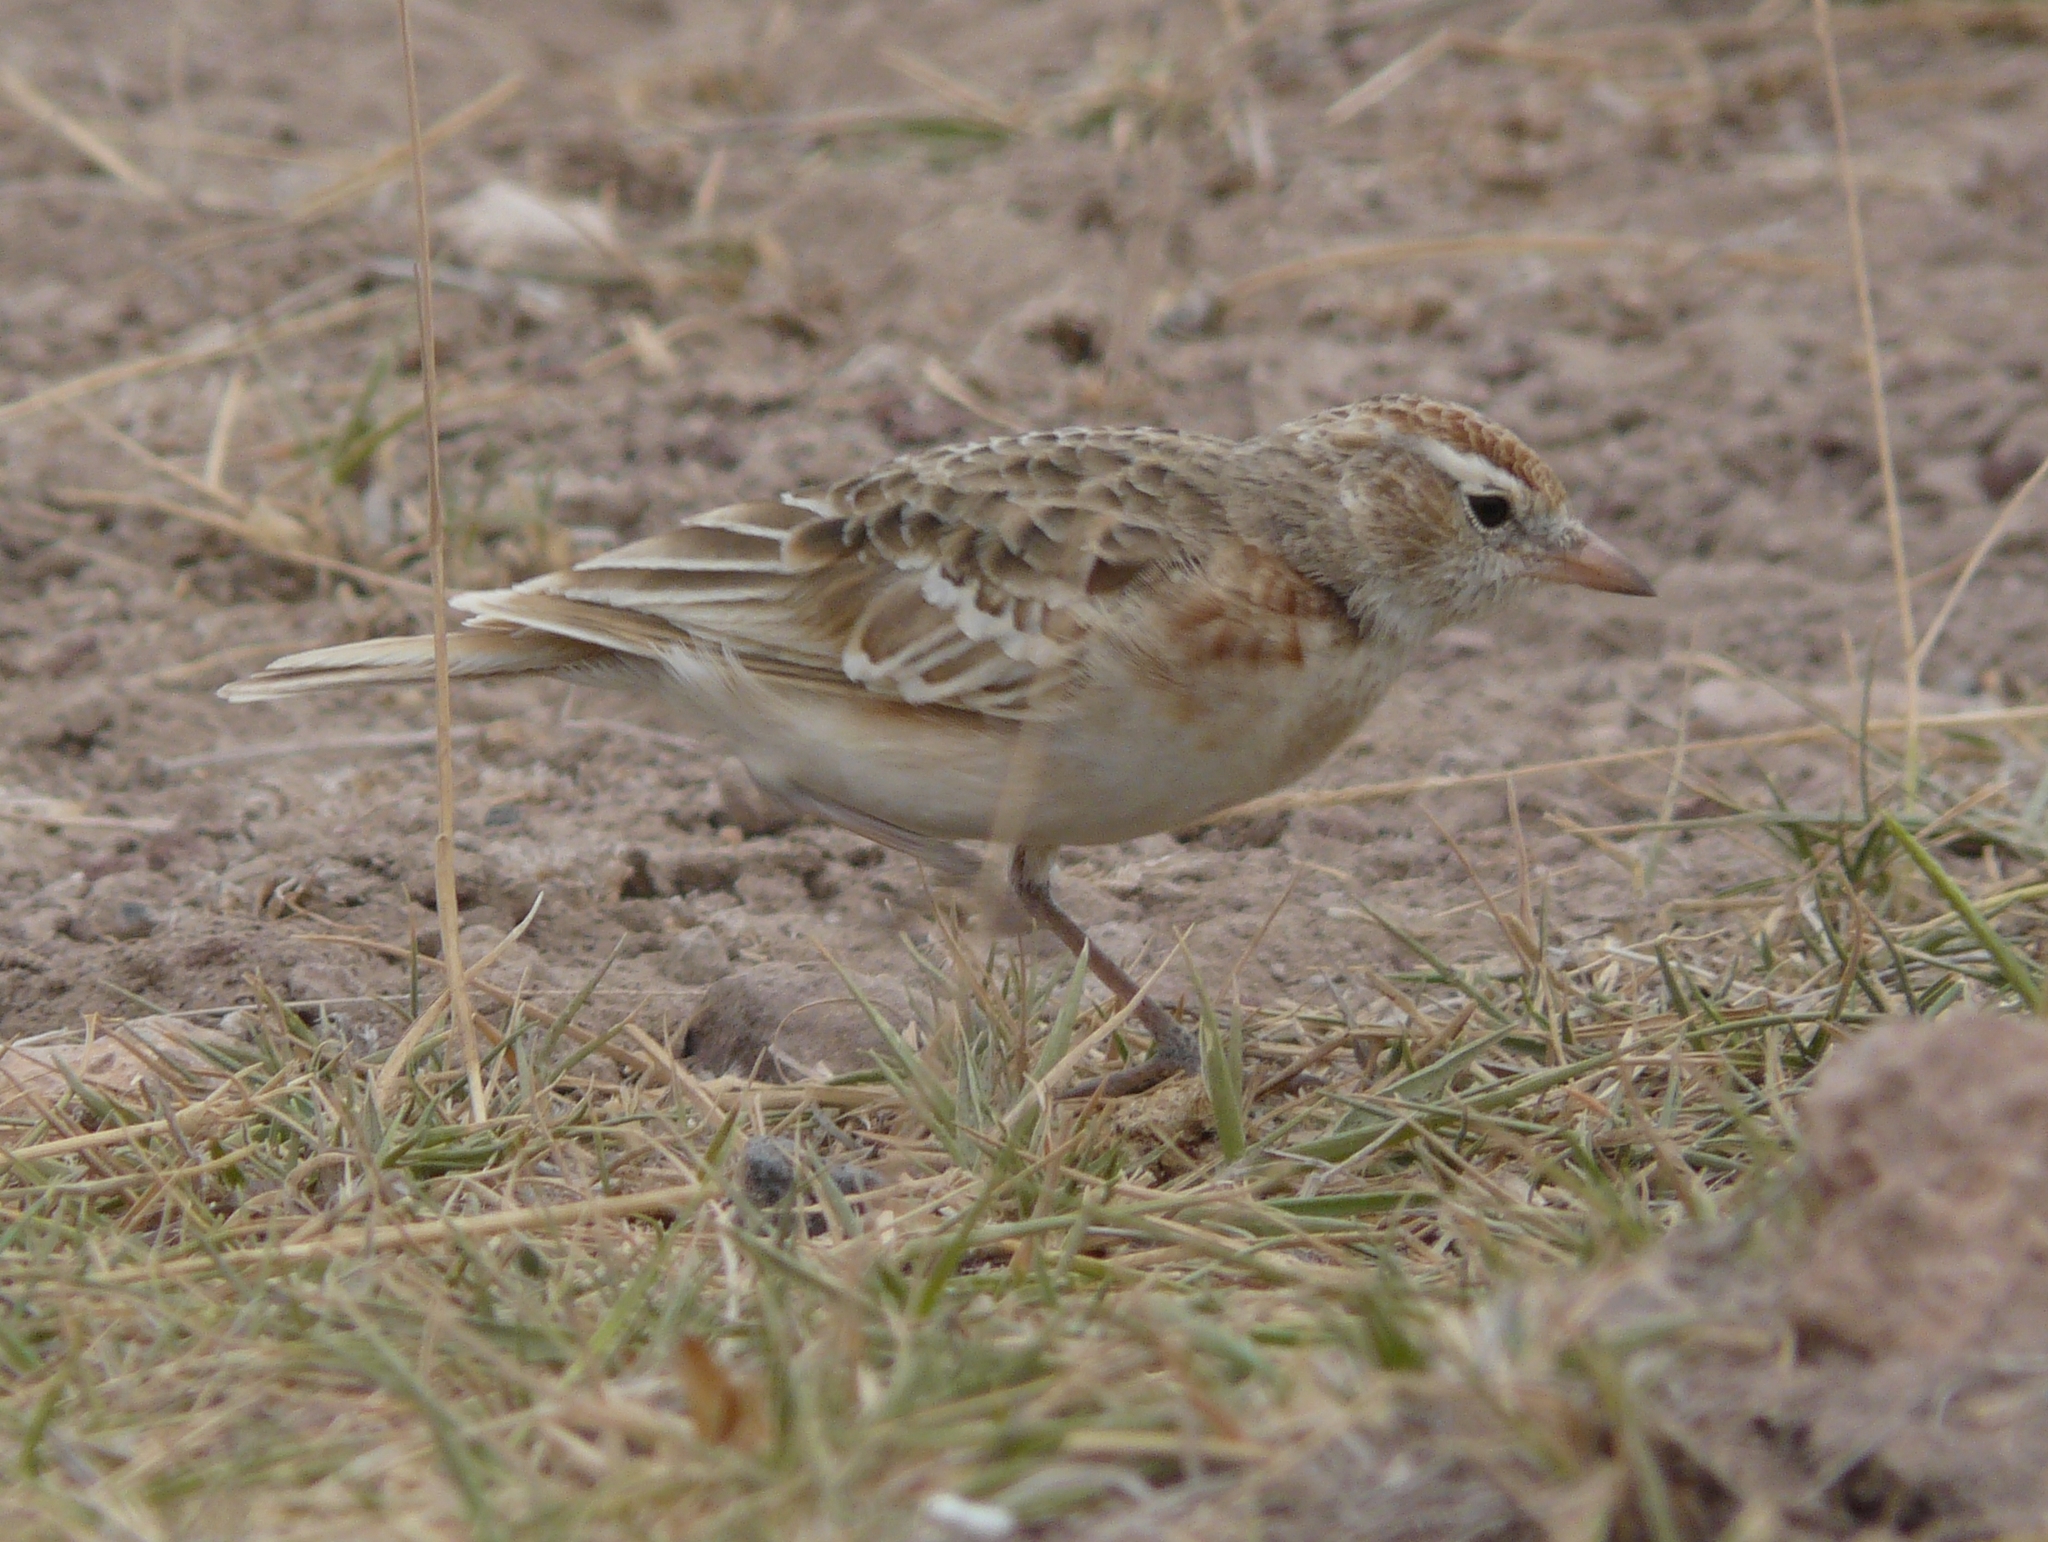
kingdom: Animalia
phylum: Chordata
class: Aves
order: Passeriformes
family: Alaudidae
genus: Calandrella
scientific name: Calandrella cinerea
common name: Red-capped lark
